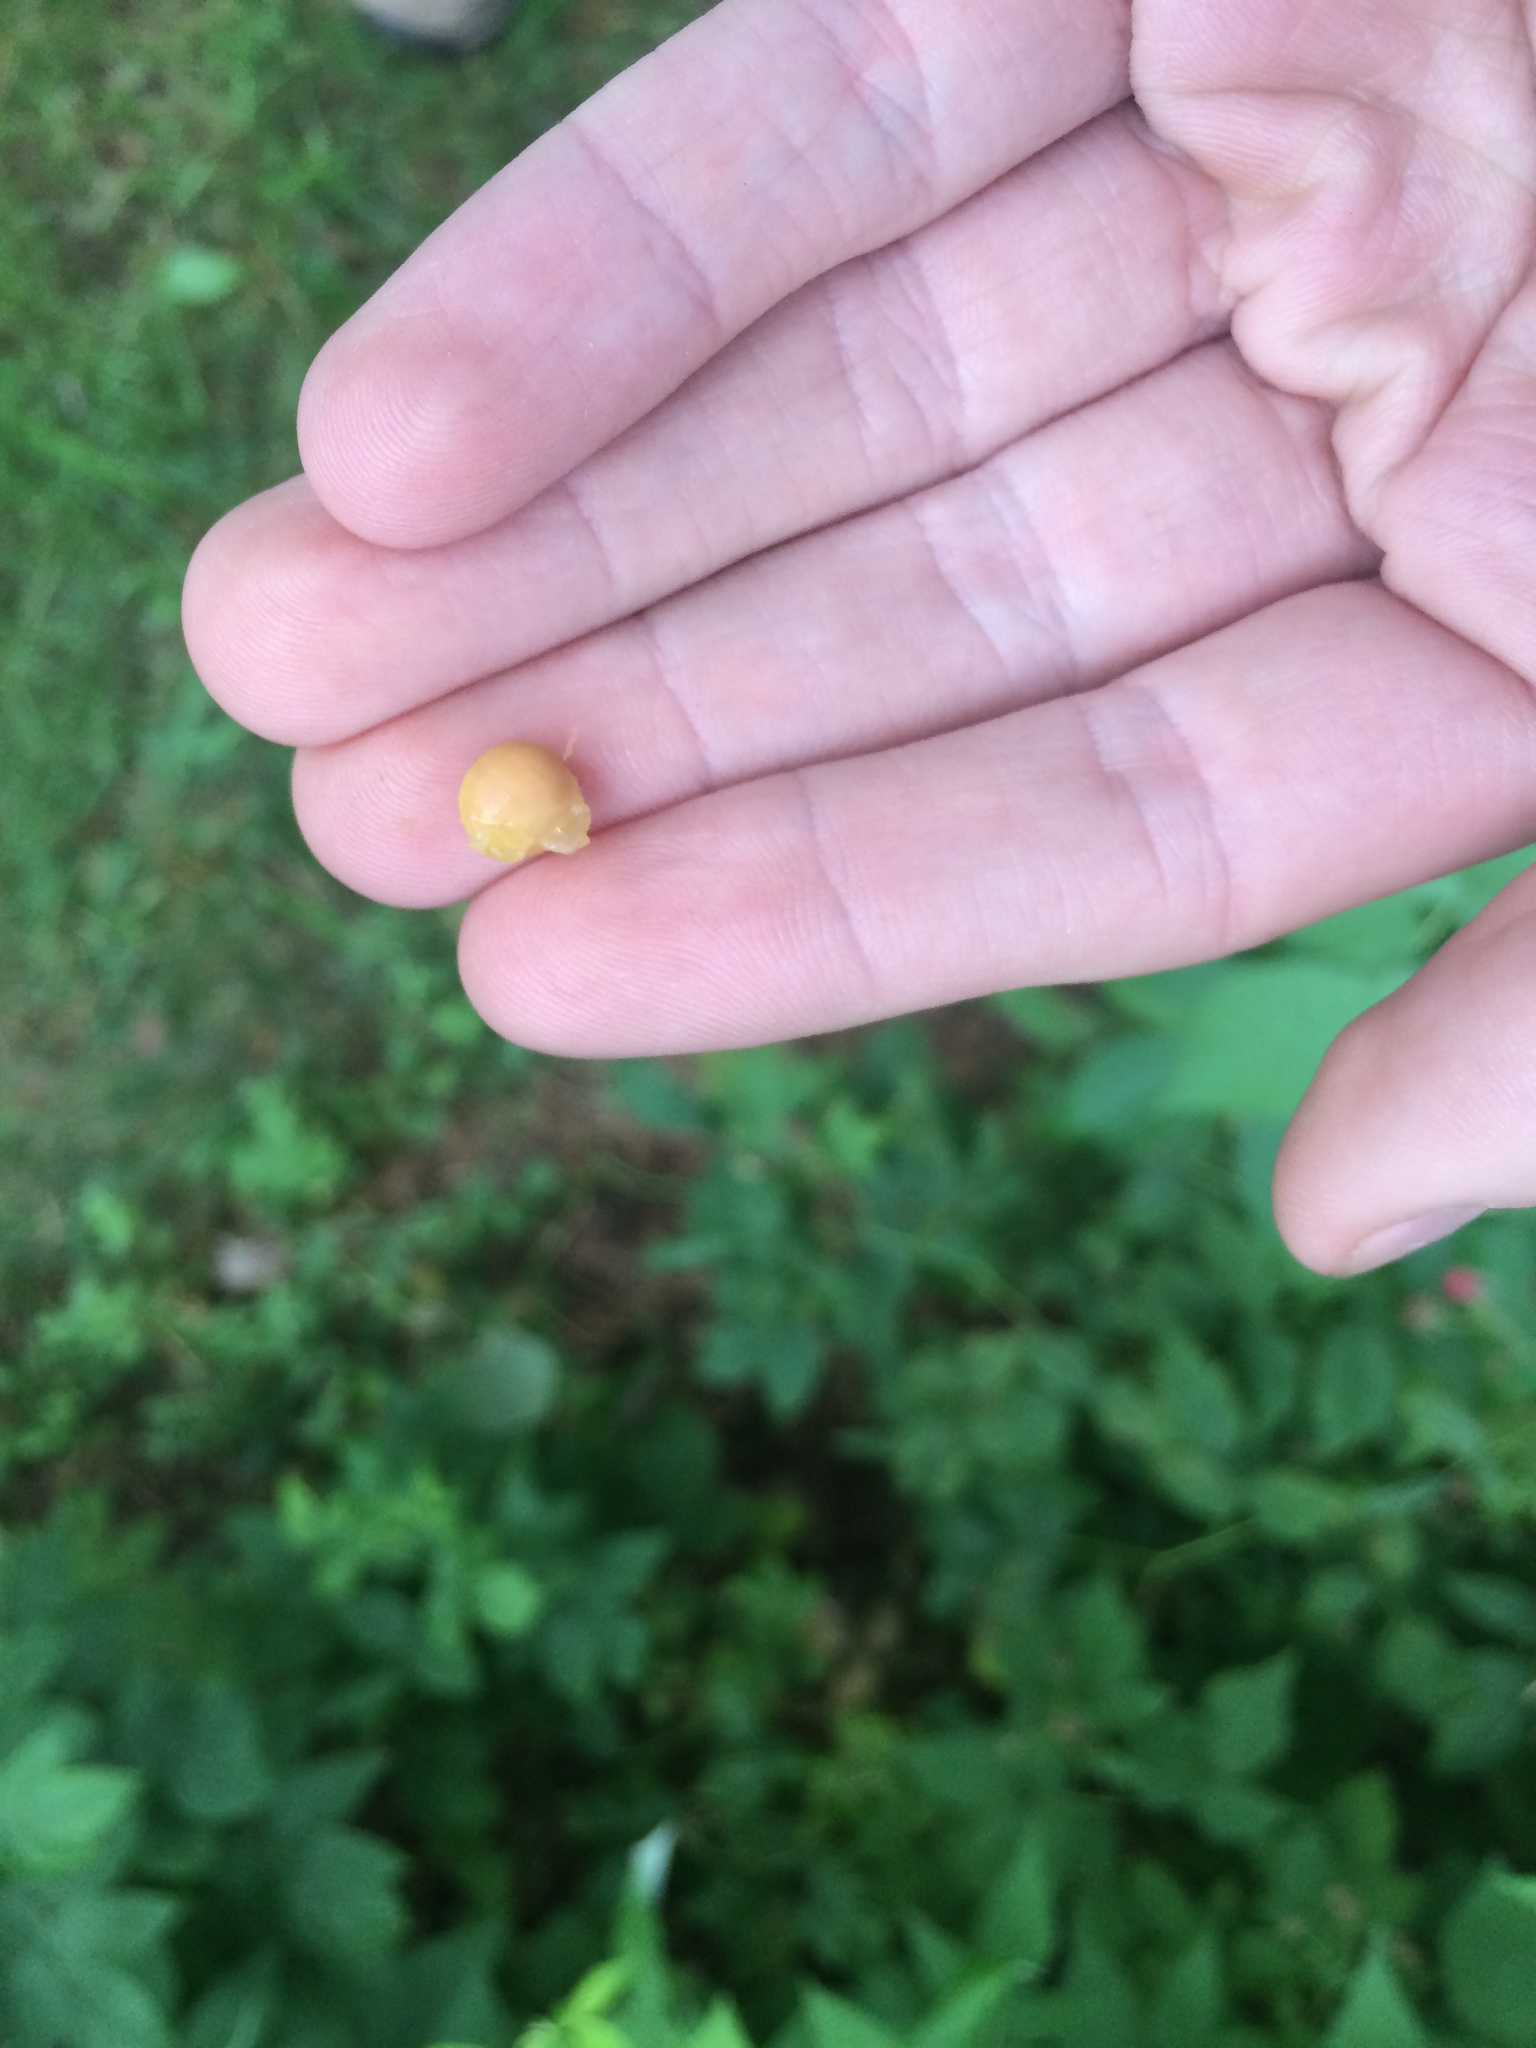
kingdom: Plantae
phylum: Tracheophyta
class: Magnoliopsida
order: Rosales
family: Rosaceae
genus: Prunus
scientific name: Prunus virginiana
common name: Chokecherry
